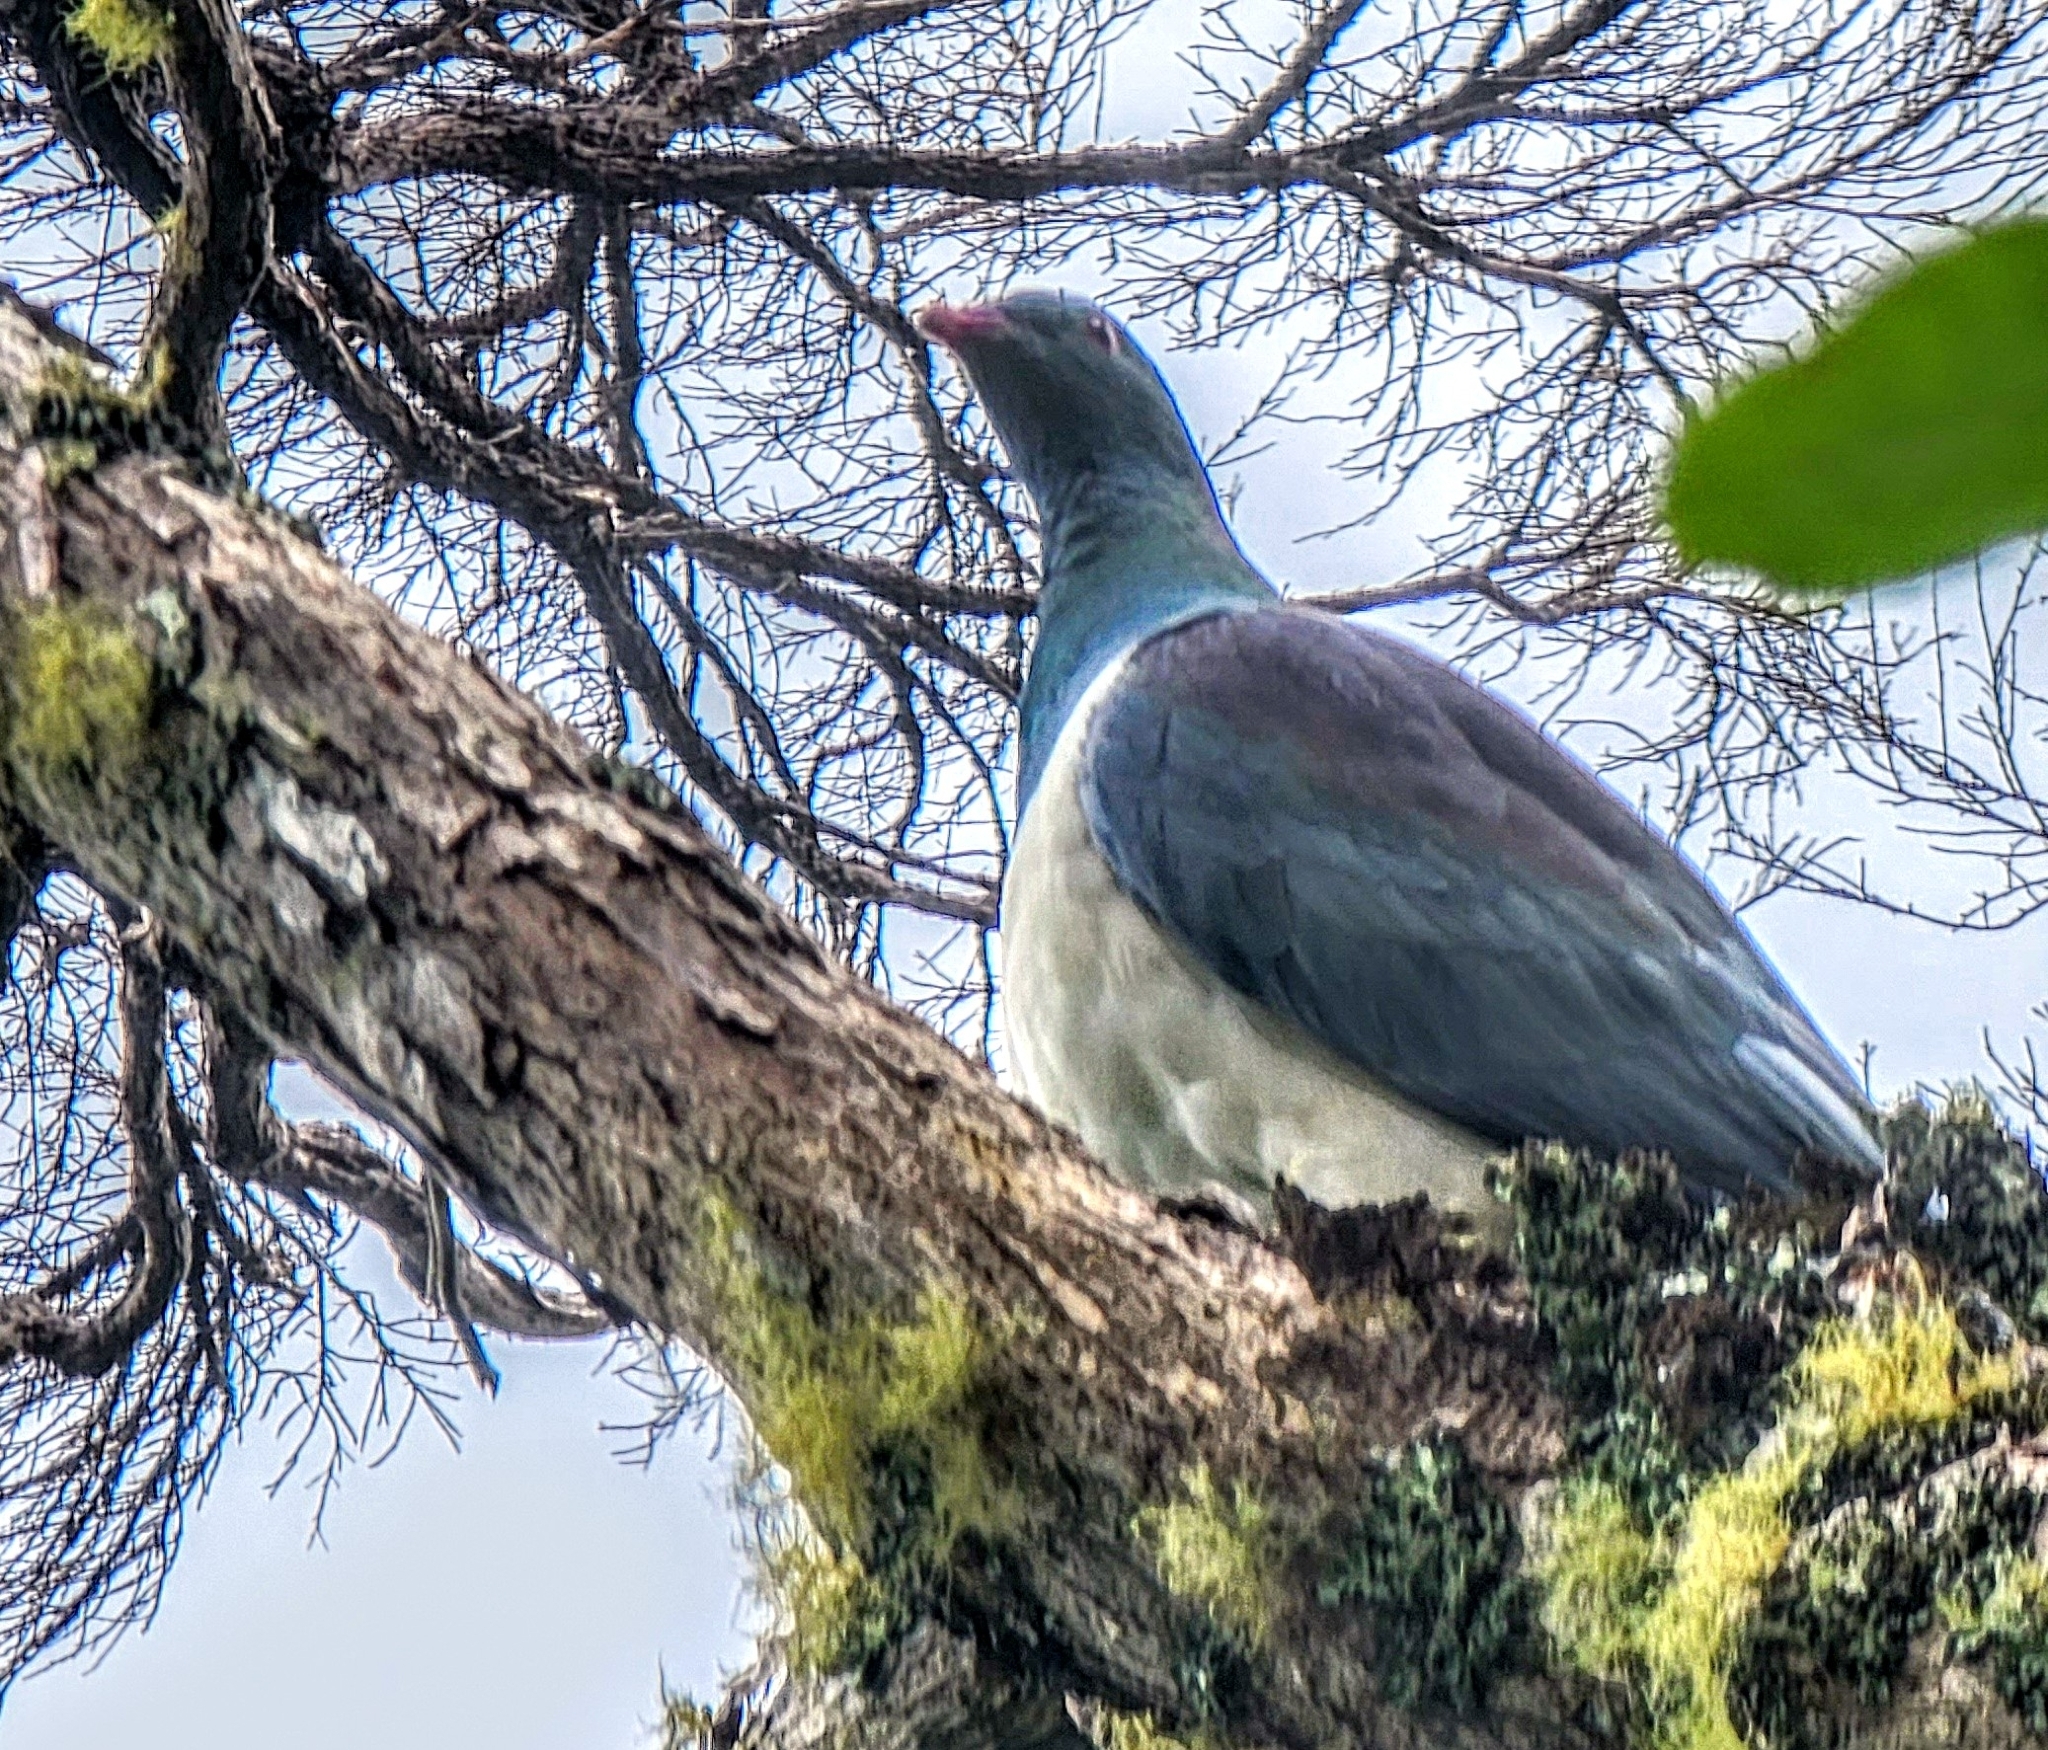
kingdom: Animalia
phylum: Chordata
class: Aves
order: Columbiformes
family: Columbidae
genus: Hemiphaga
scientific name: Hemiphaga novaeseelandiae
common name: New zealand pigeon
